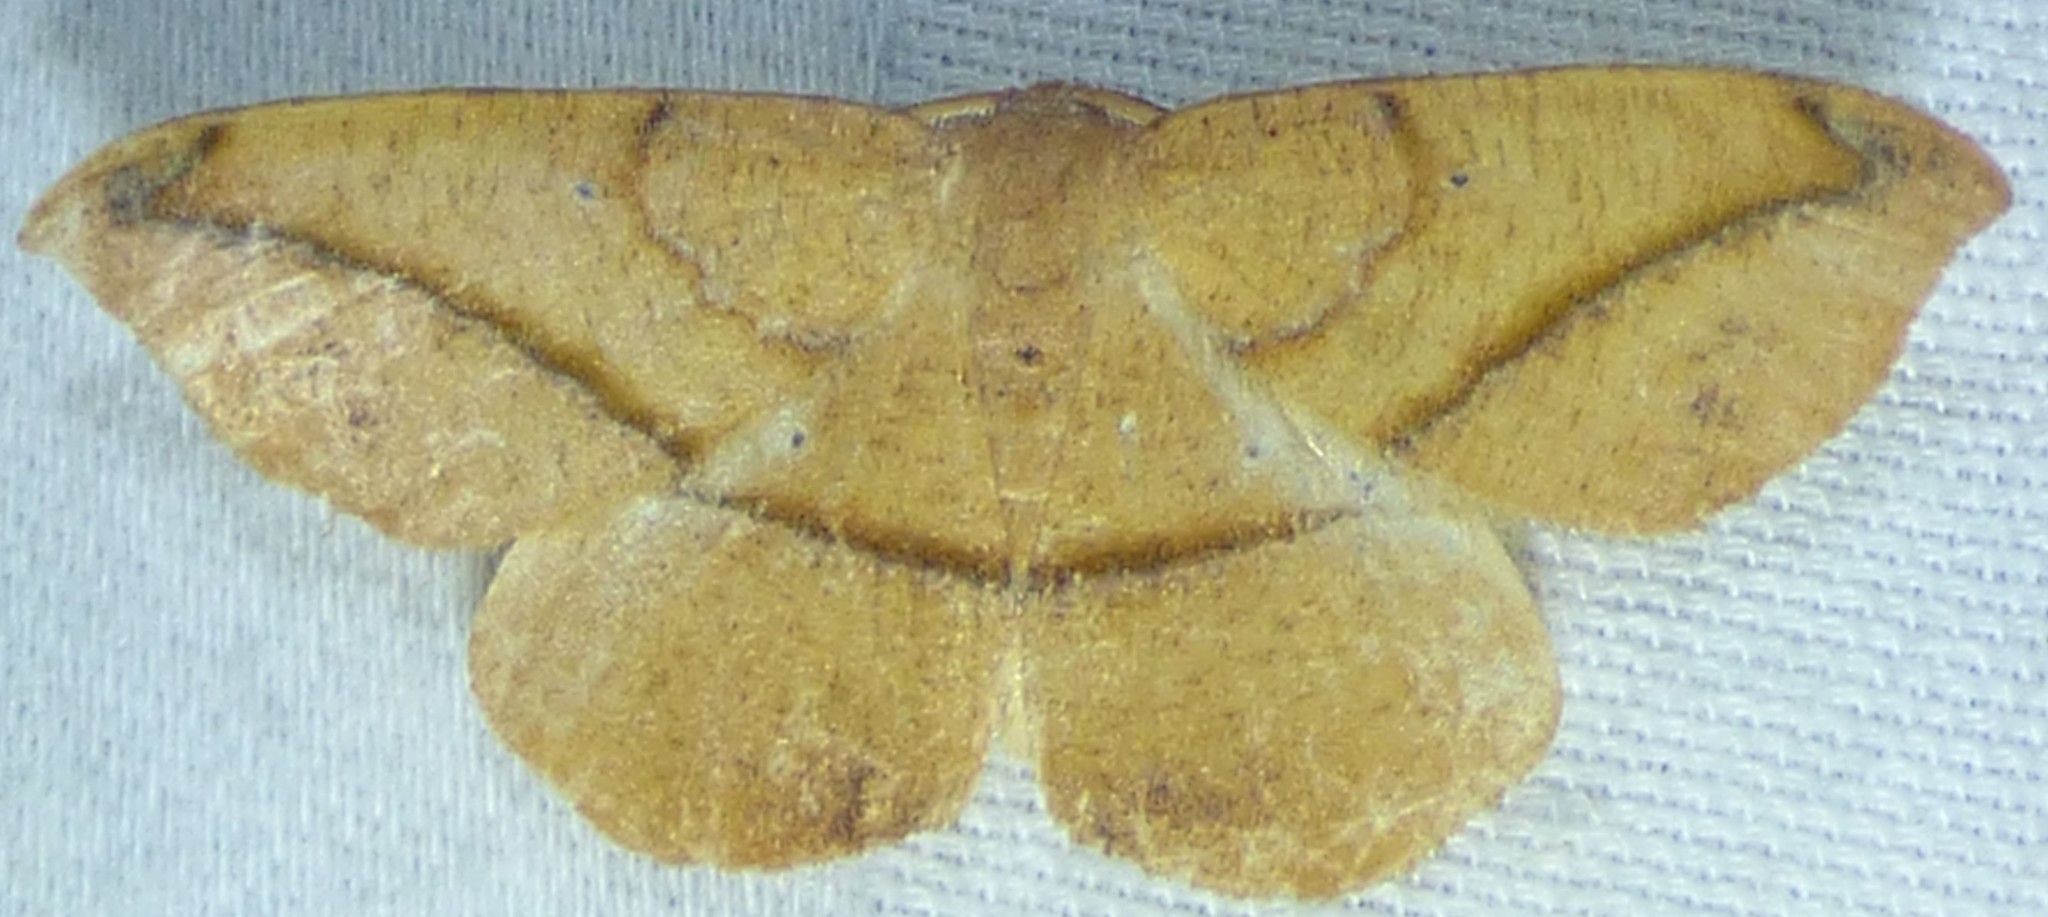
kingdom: Animalia
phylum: Arthropoda
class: Insecta
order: Lepidoptera
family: Geometridae
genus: Patalene
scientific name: Patalene olyzonaria
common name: Juniper geometer moth
